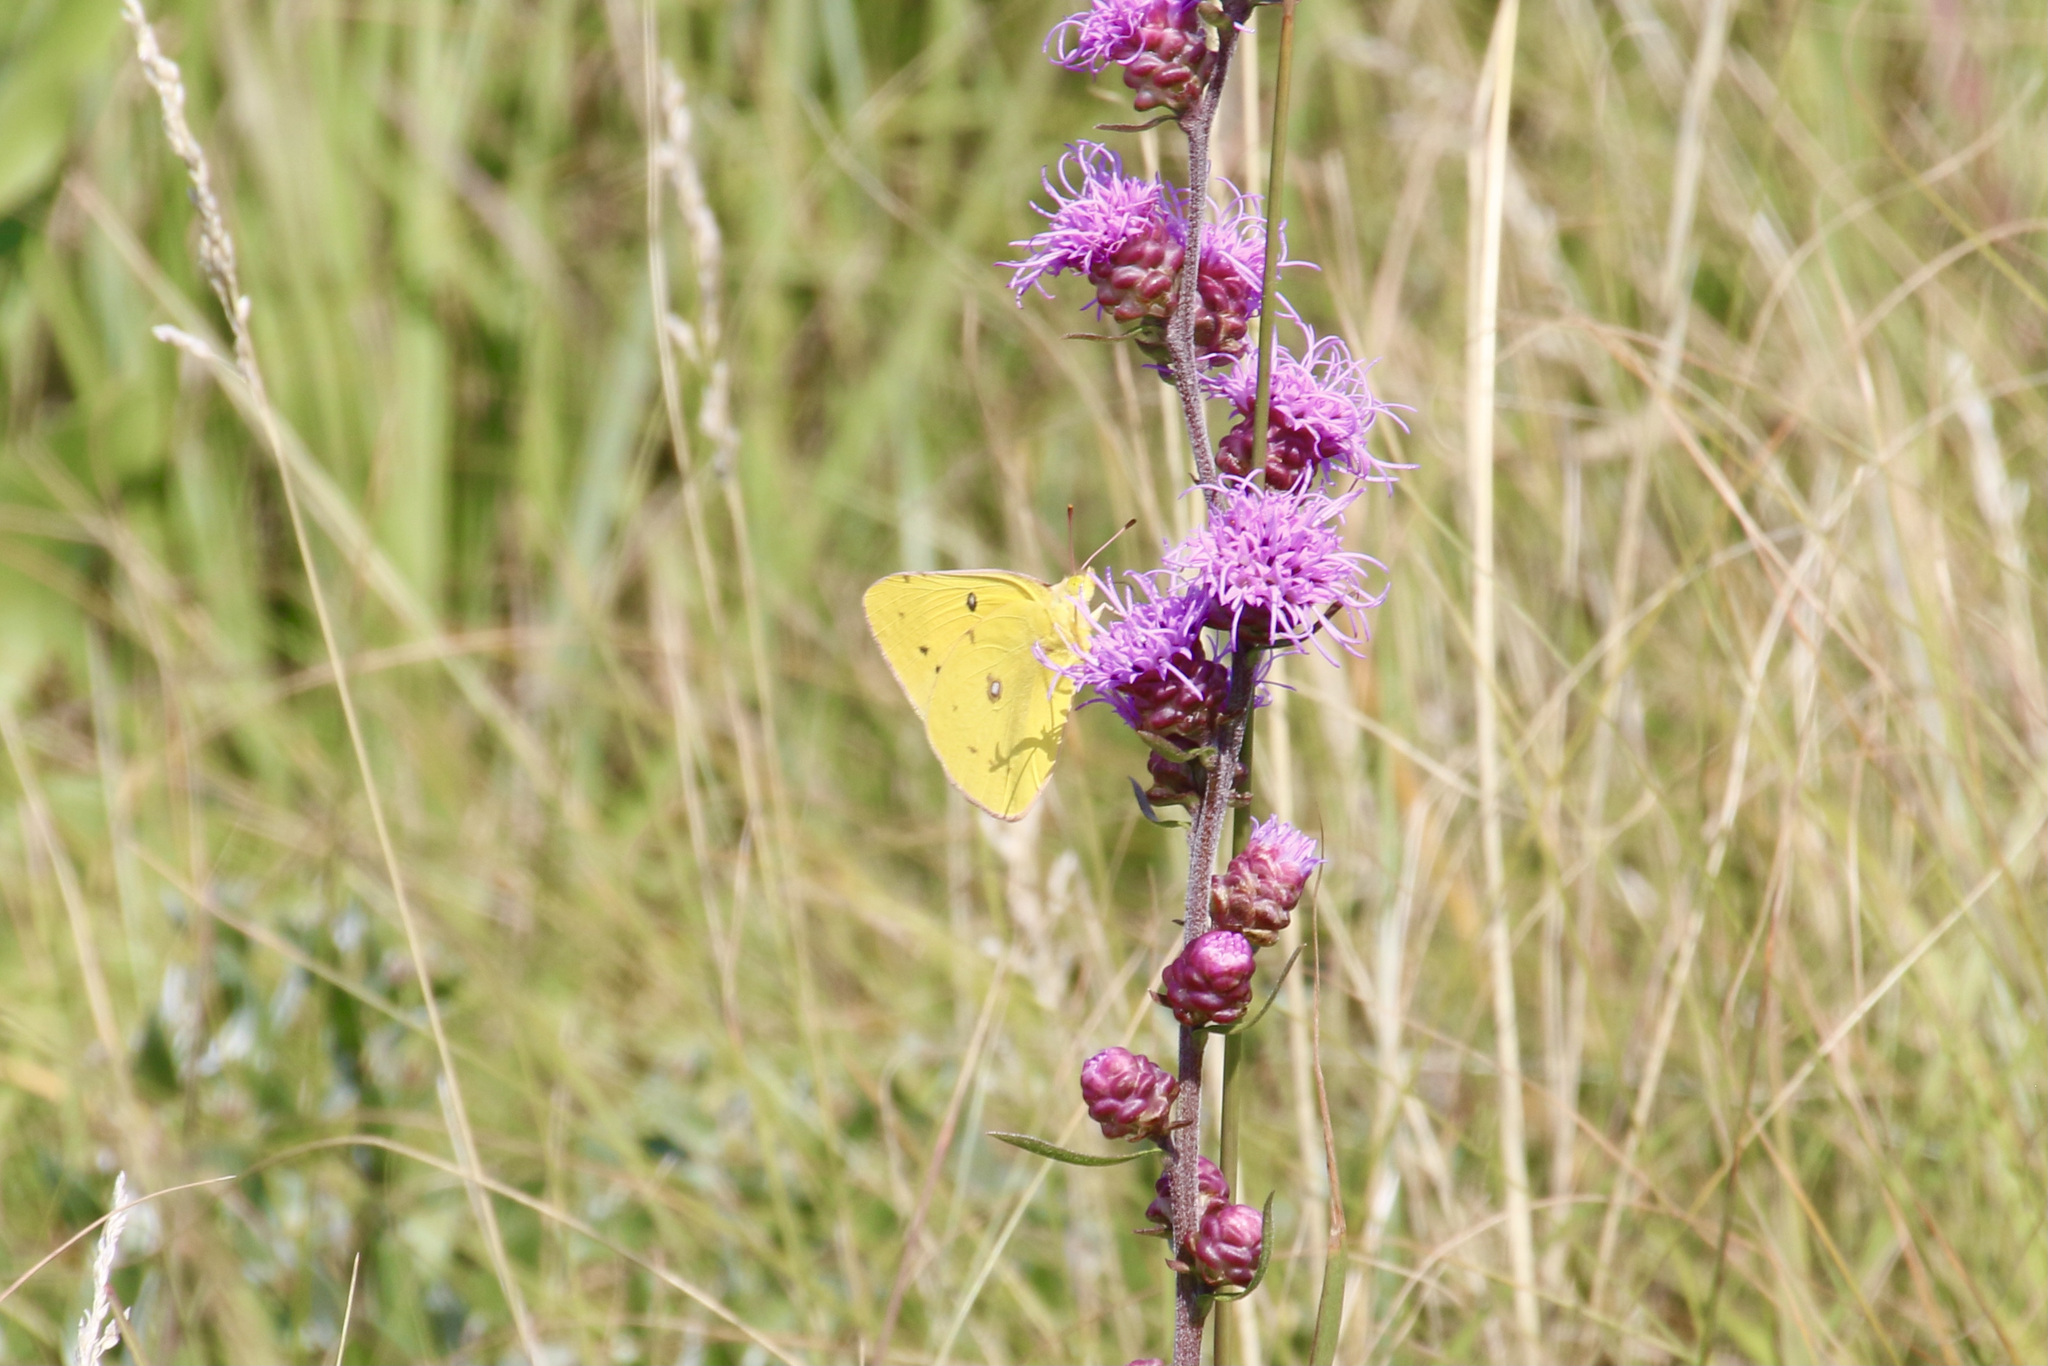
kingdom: Animalia
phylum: Arthropoda
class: Insecta
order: Lepidoptera
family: Pieridae
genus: Colias
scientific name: Colias eurytheme
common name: Alfalfa butterfly
